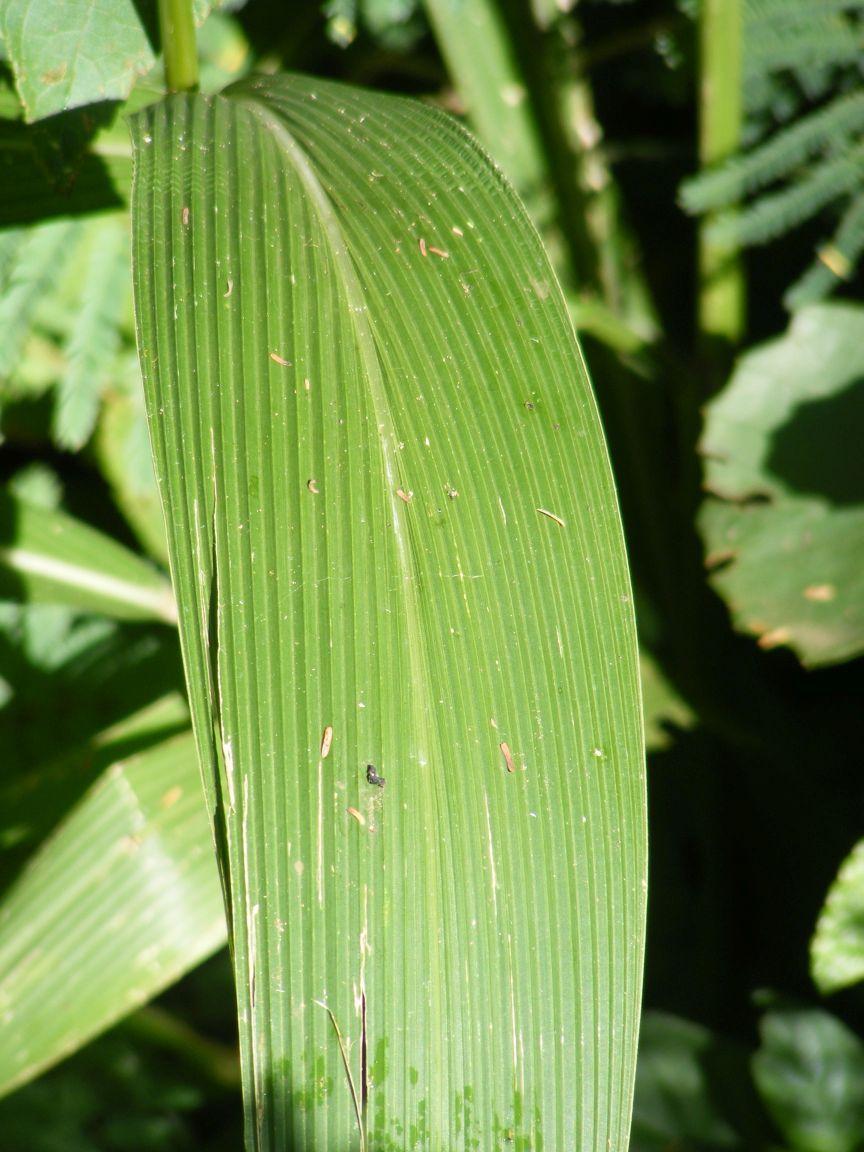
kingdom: Plantae
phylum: Tracheophyta
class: Liliopsida
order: Poales
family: Poaceae
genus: Setaria
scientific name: Setaria megaphylla
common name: Bigleaf bristlegrass
